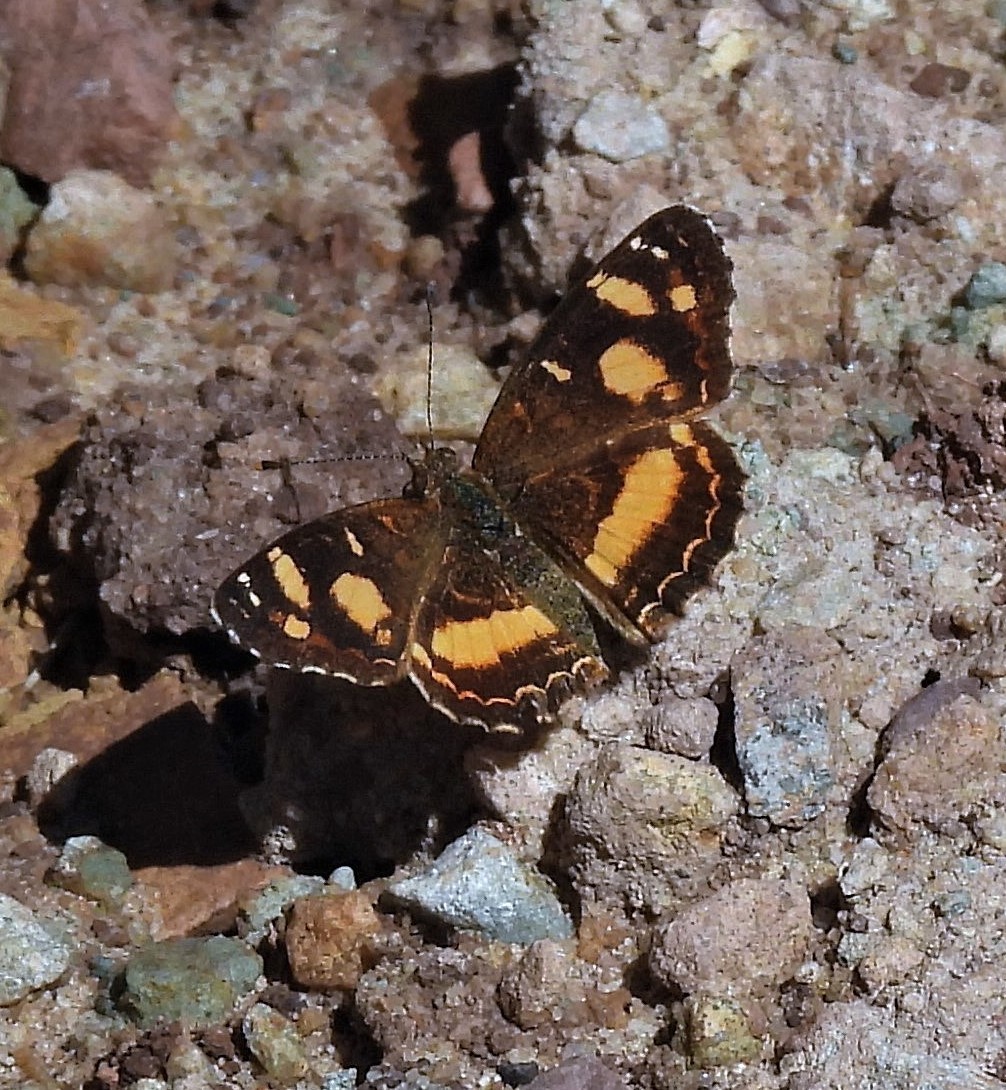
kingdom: Animalia
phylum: Arthropoda
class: Insecta
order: Lepidoptera
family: Nymphalidae
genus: Telenassa
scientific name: Telenassa berenice
